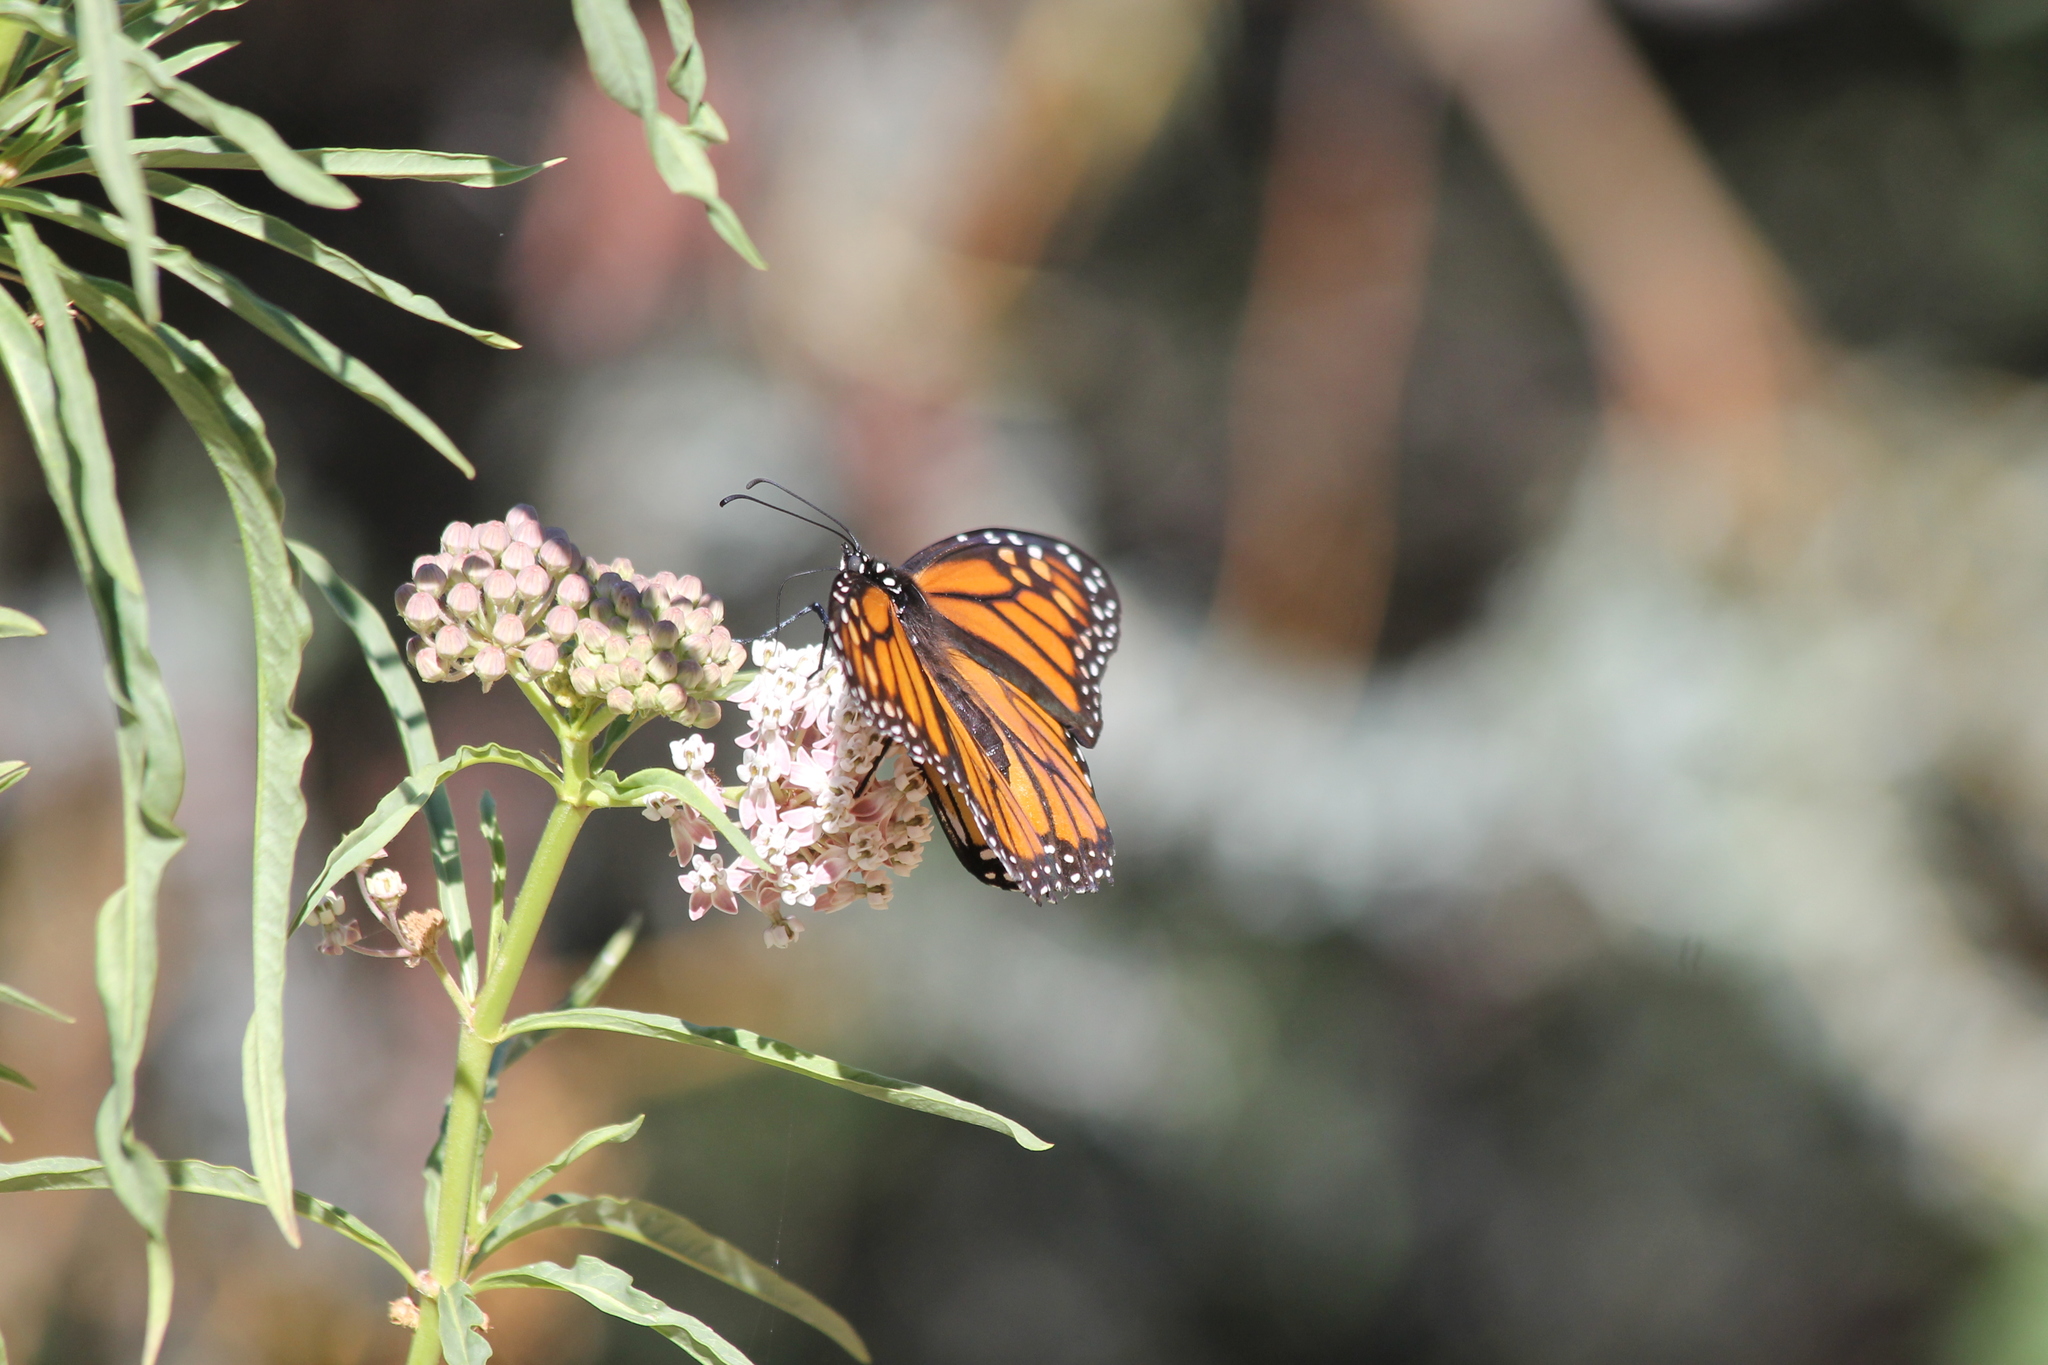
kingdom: Animalia
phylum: Arthropoda
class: Insecta
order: Lepidoptera
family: Nymphalidae
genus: Danaus
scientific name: Danaus plexippus
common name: Monarch
